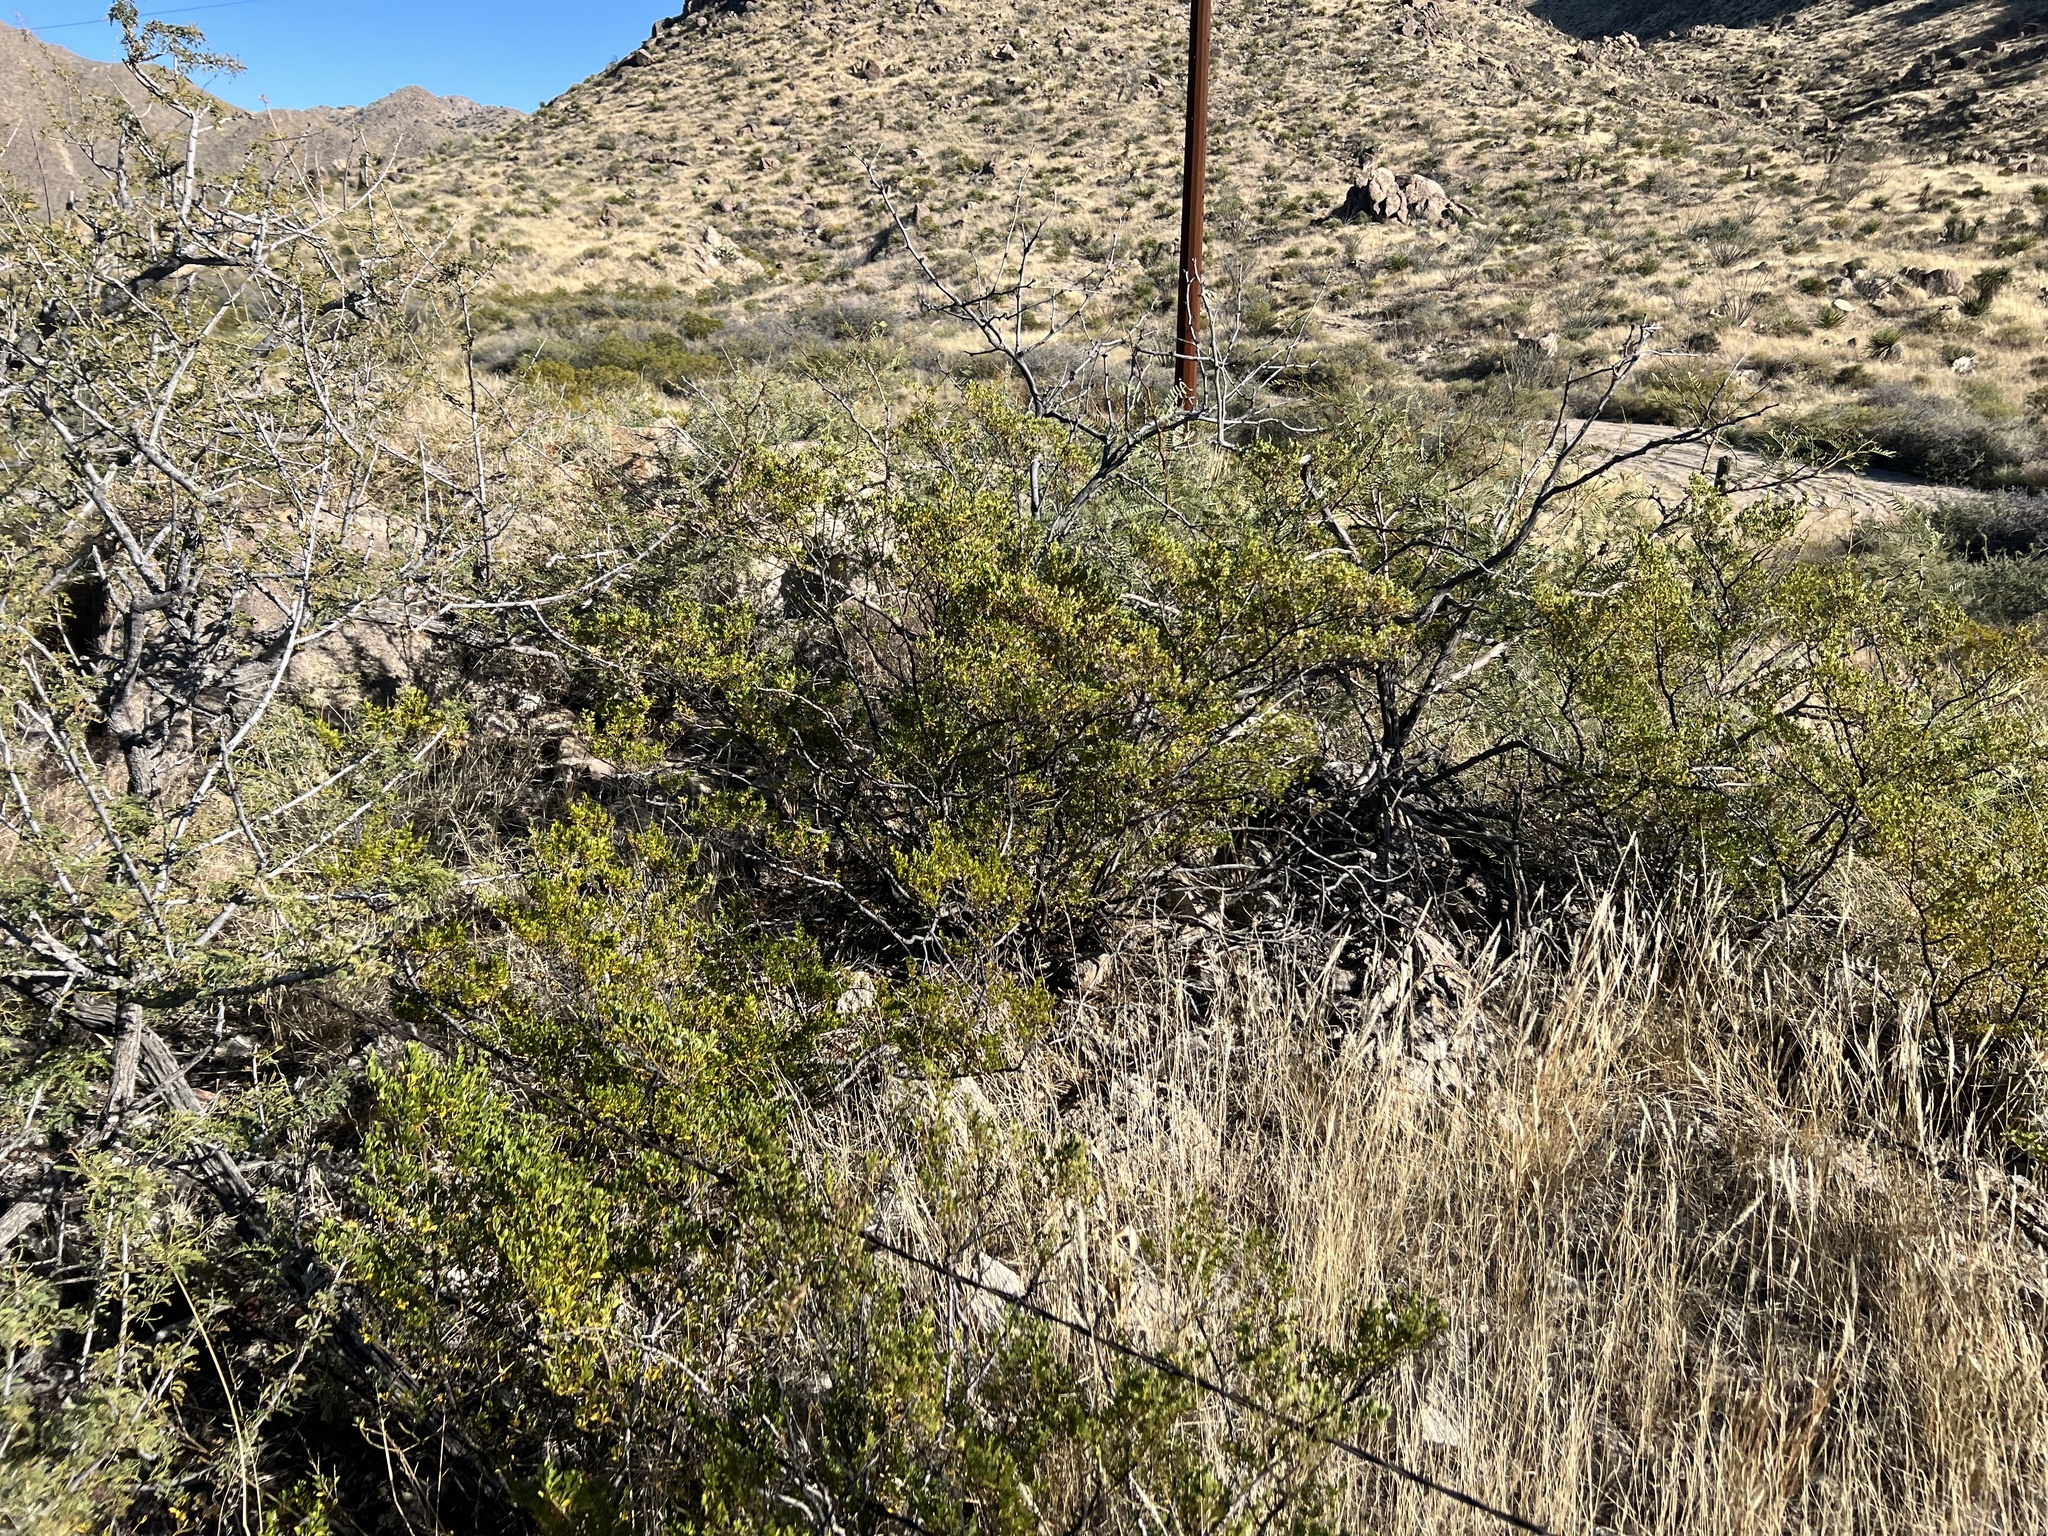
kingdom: Plantae
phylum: Tracheophyta
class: Magnoliopsida
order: Zygophyllales
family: Zygophyllaceae
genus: Larrea
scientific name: Larrea tridentata
